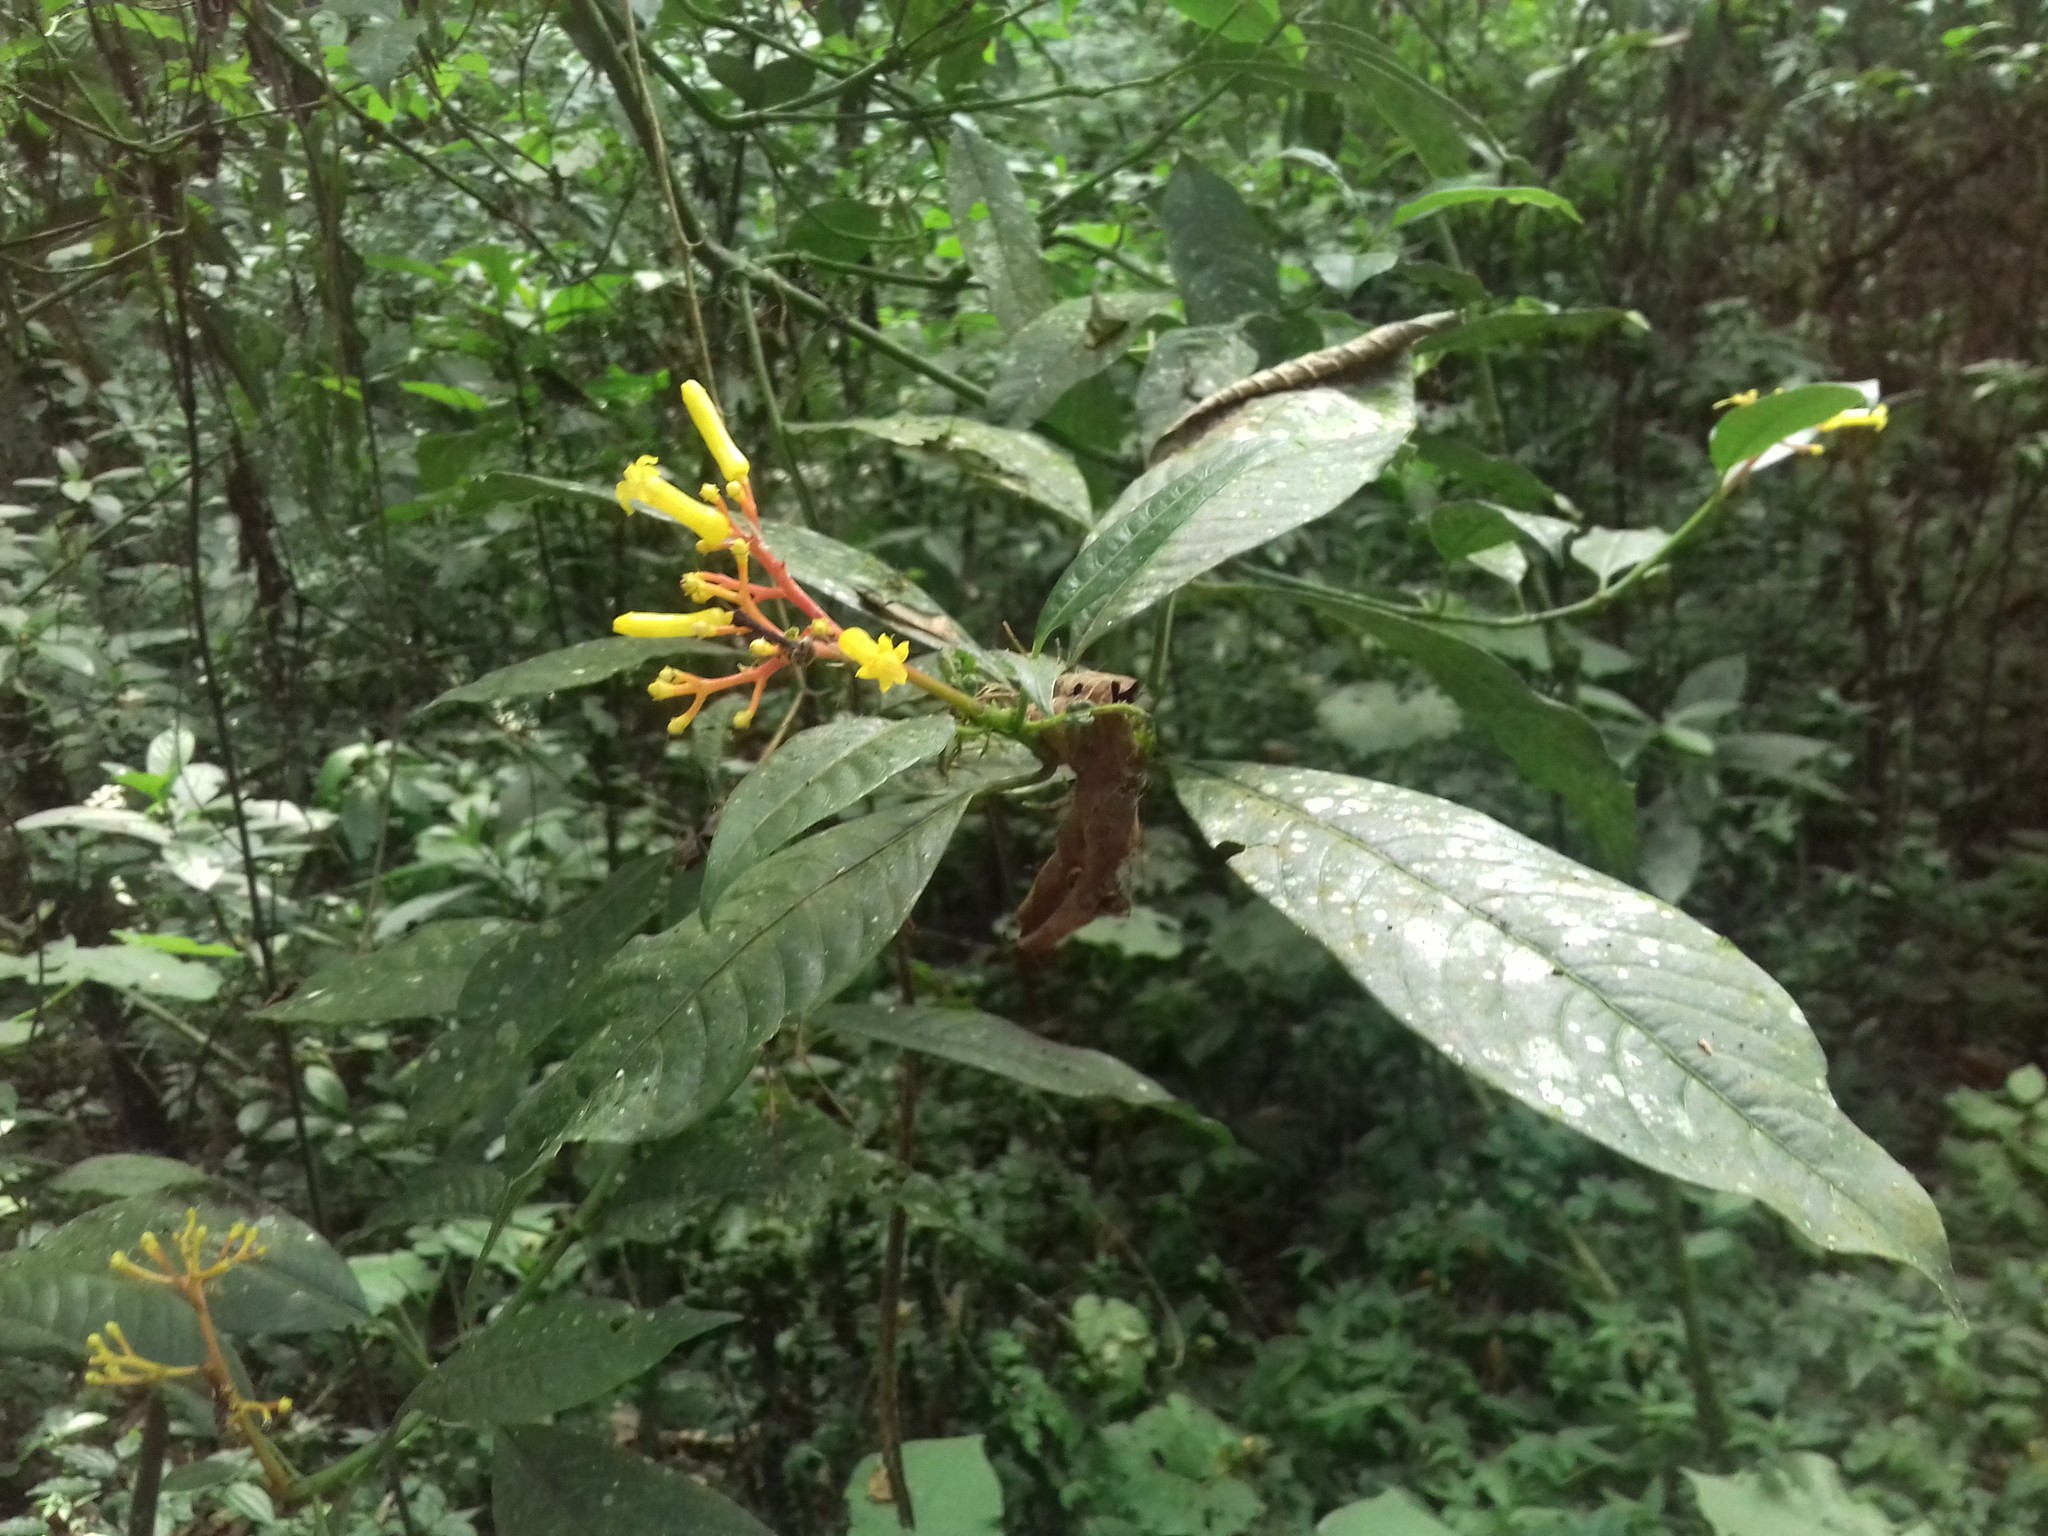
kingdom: Plantae
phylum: Tracheophyta
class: Magnoliopsida
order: Gentianales
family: Rubiaceae
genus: Palicourea
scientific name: Palicourea padifolia
